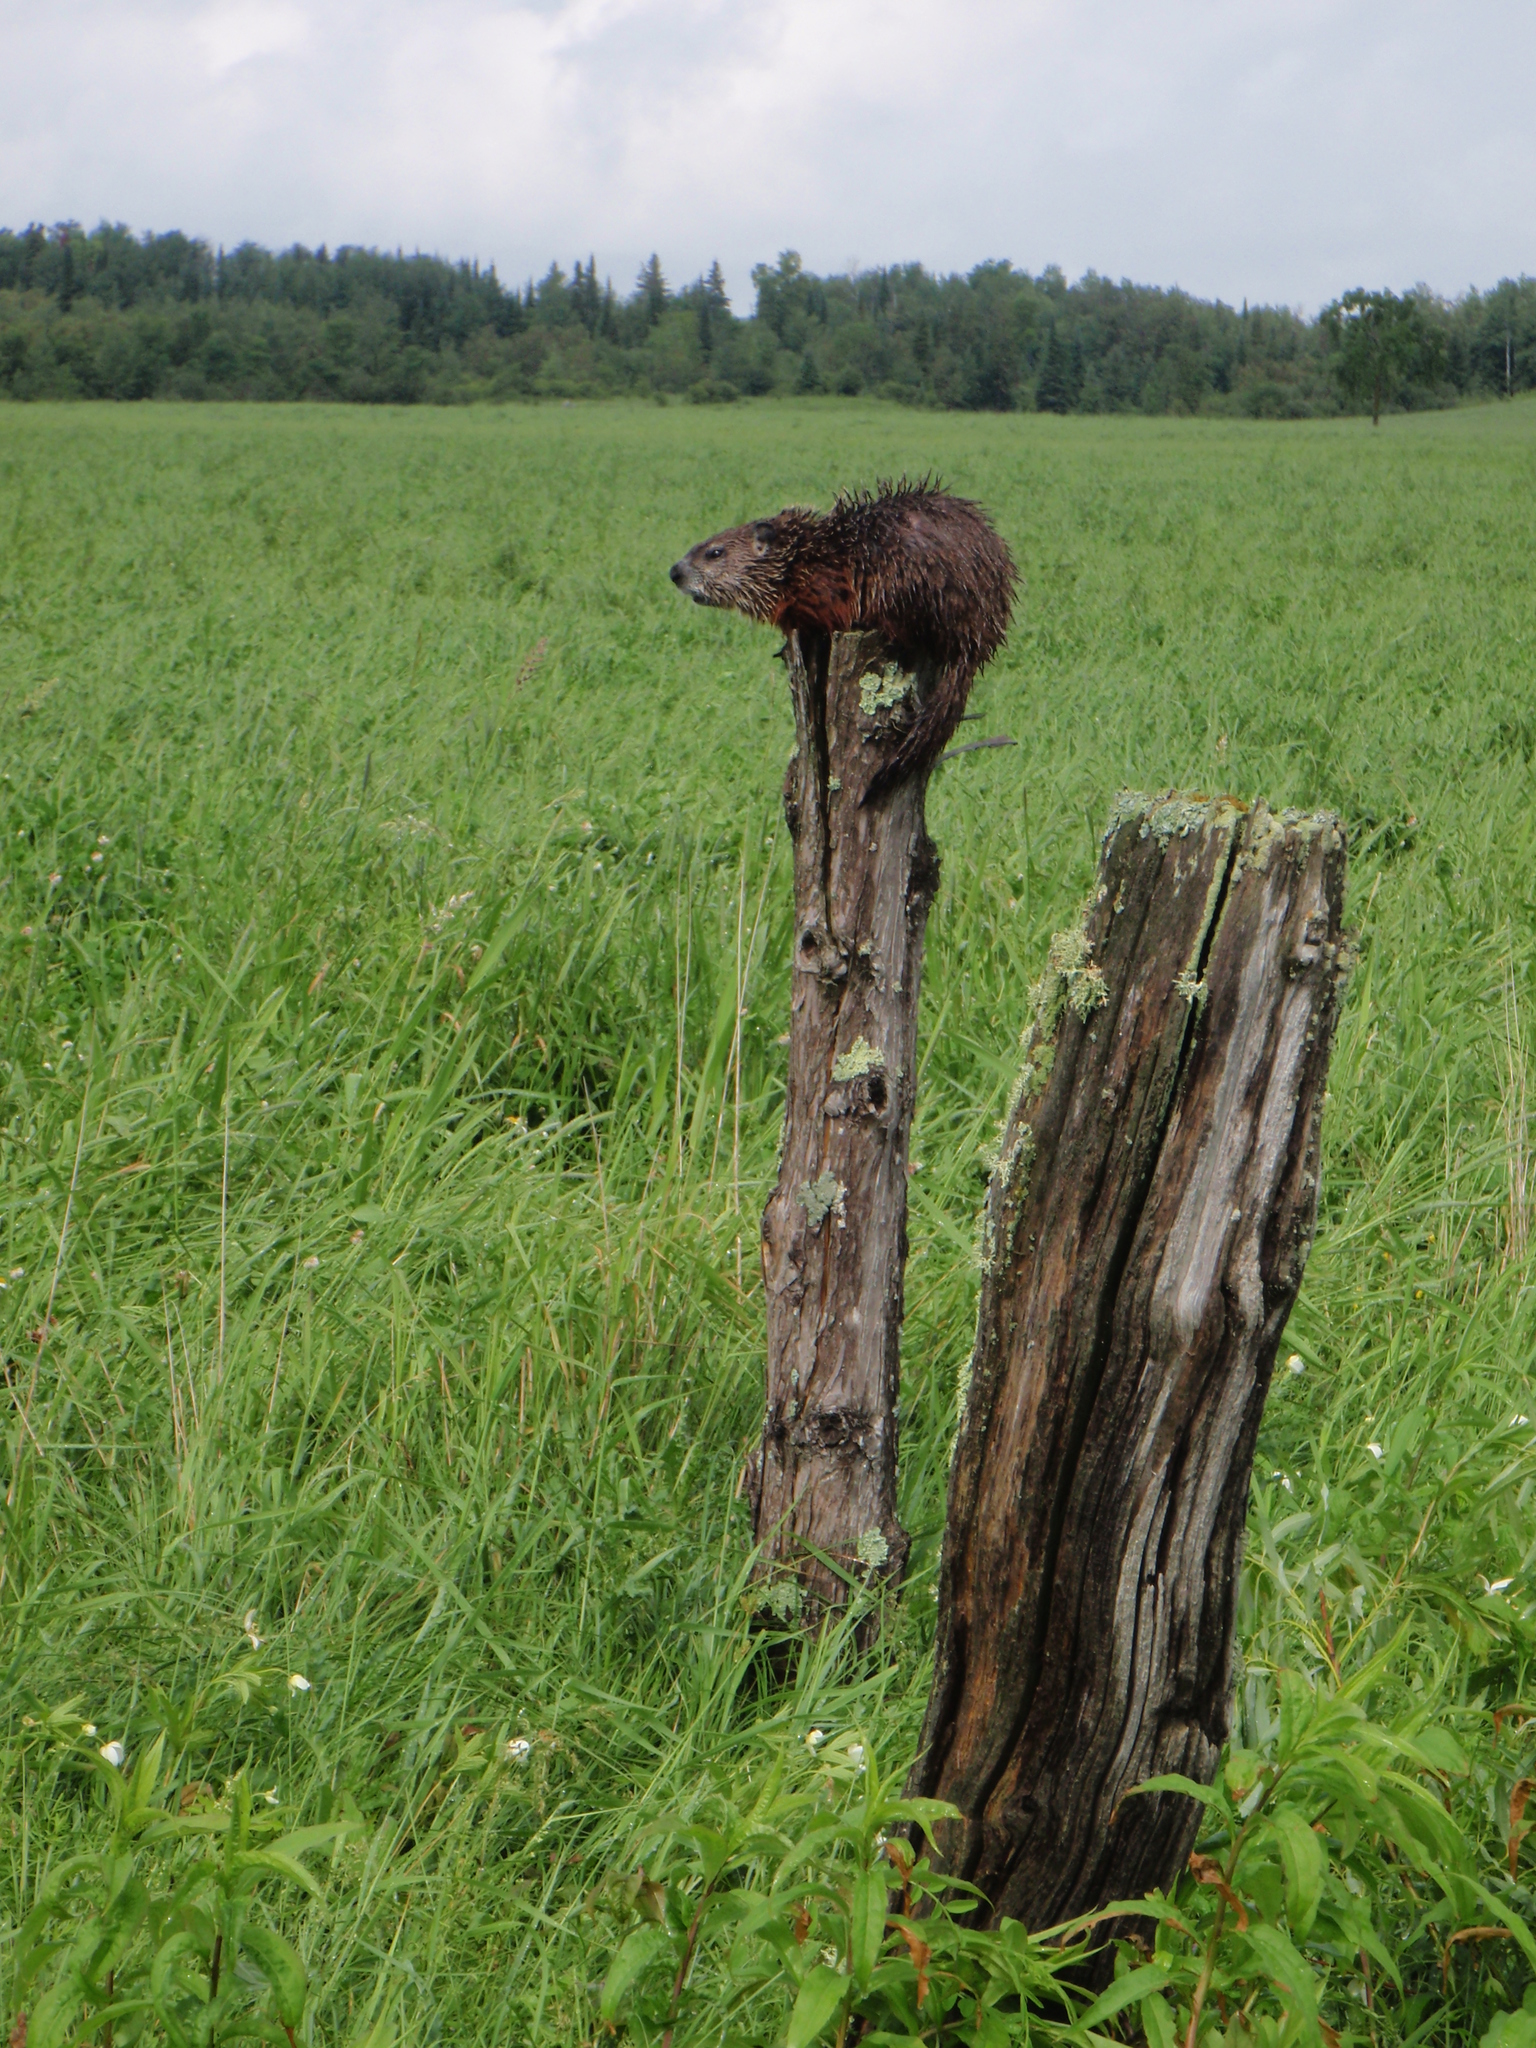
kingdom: Animalia
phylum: Chordata
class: Mammalia
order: Rodentia
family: Sciuridae
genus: Marmota
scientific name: Marmota monax
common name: Groundhog
